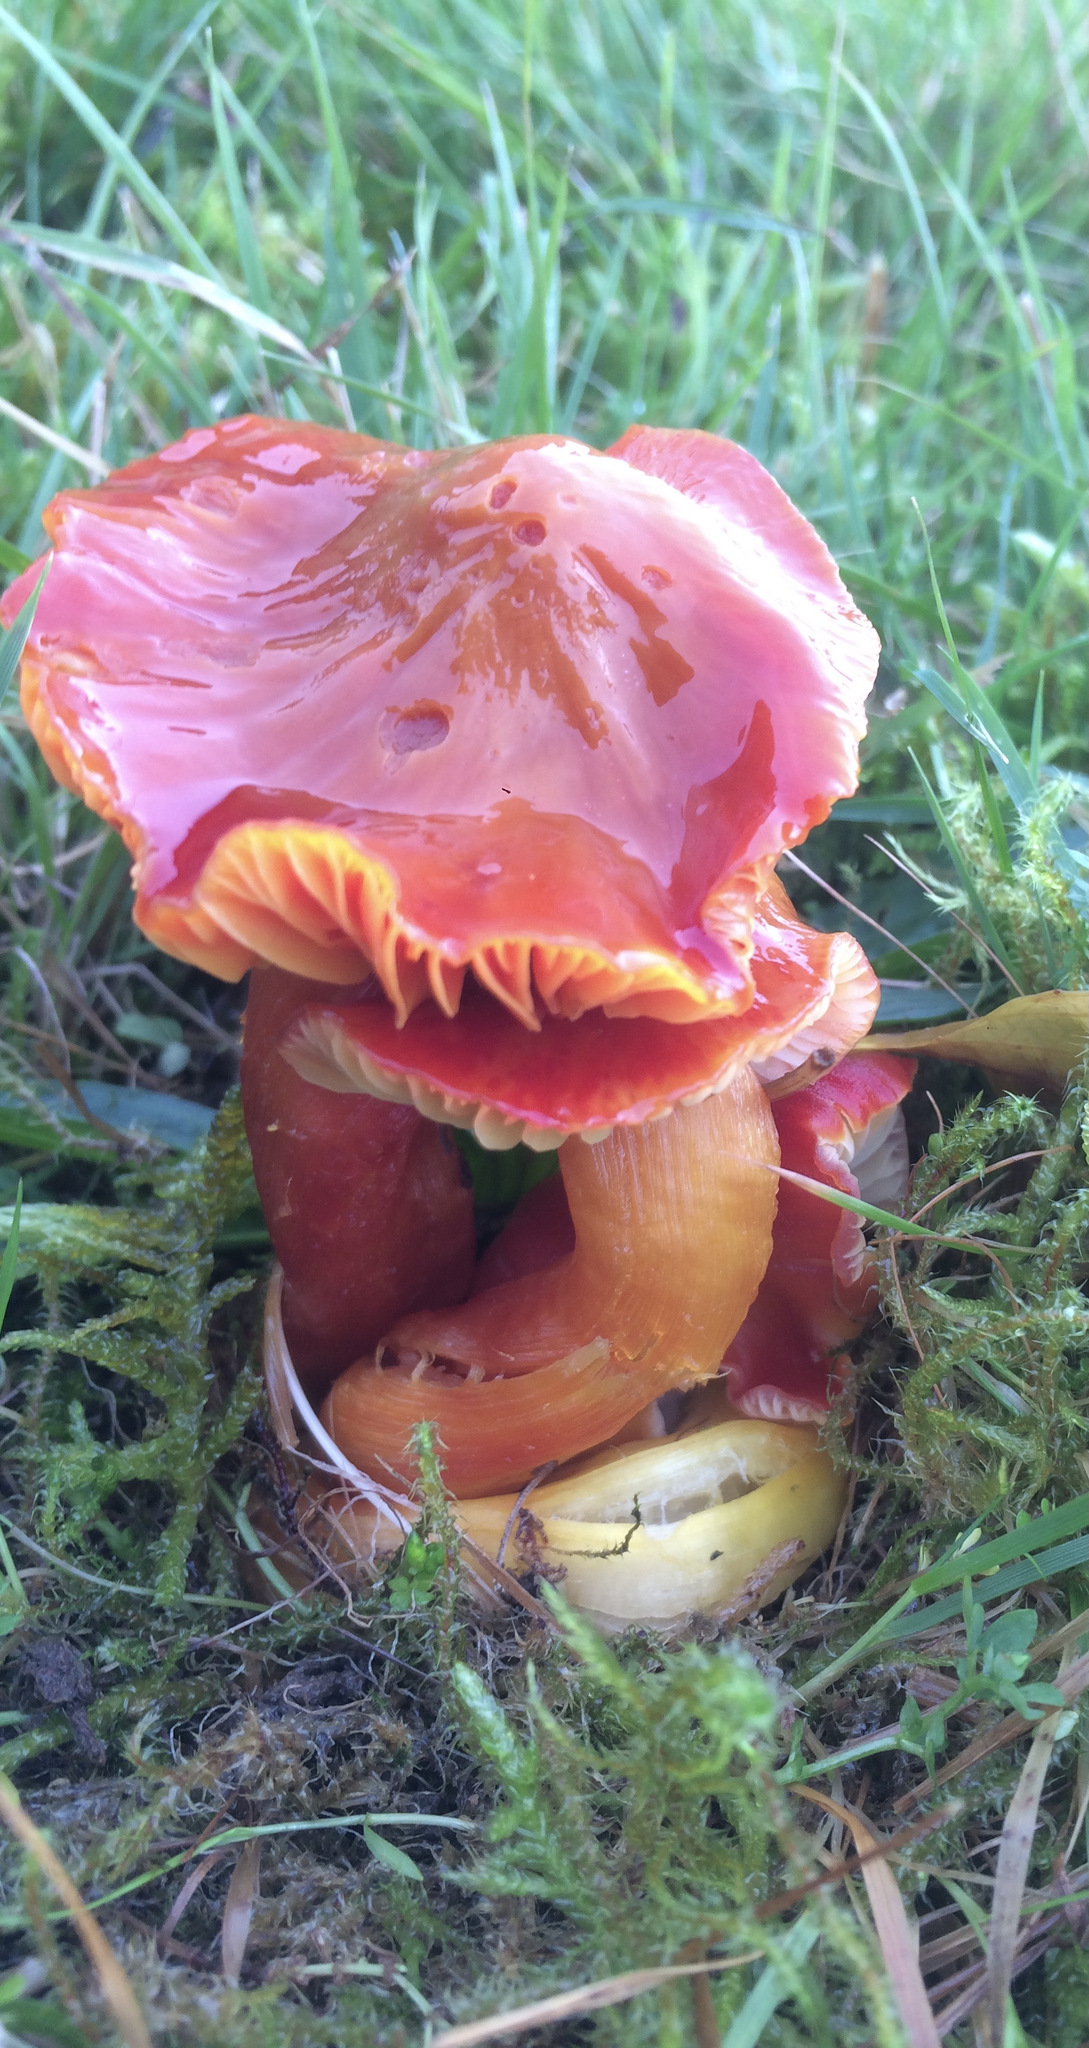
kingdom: Fungi
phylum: Basidiomycota
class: Agaricomycetes
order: Agaricales
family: Hygrophoraceae
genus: Hygrocybe
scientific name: Hygrocybe punicea
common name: Crimson waxcap
